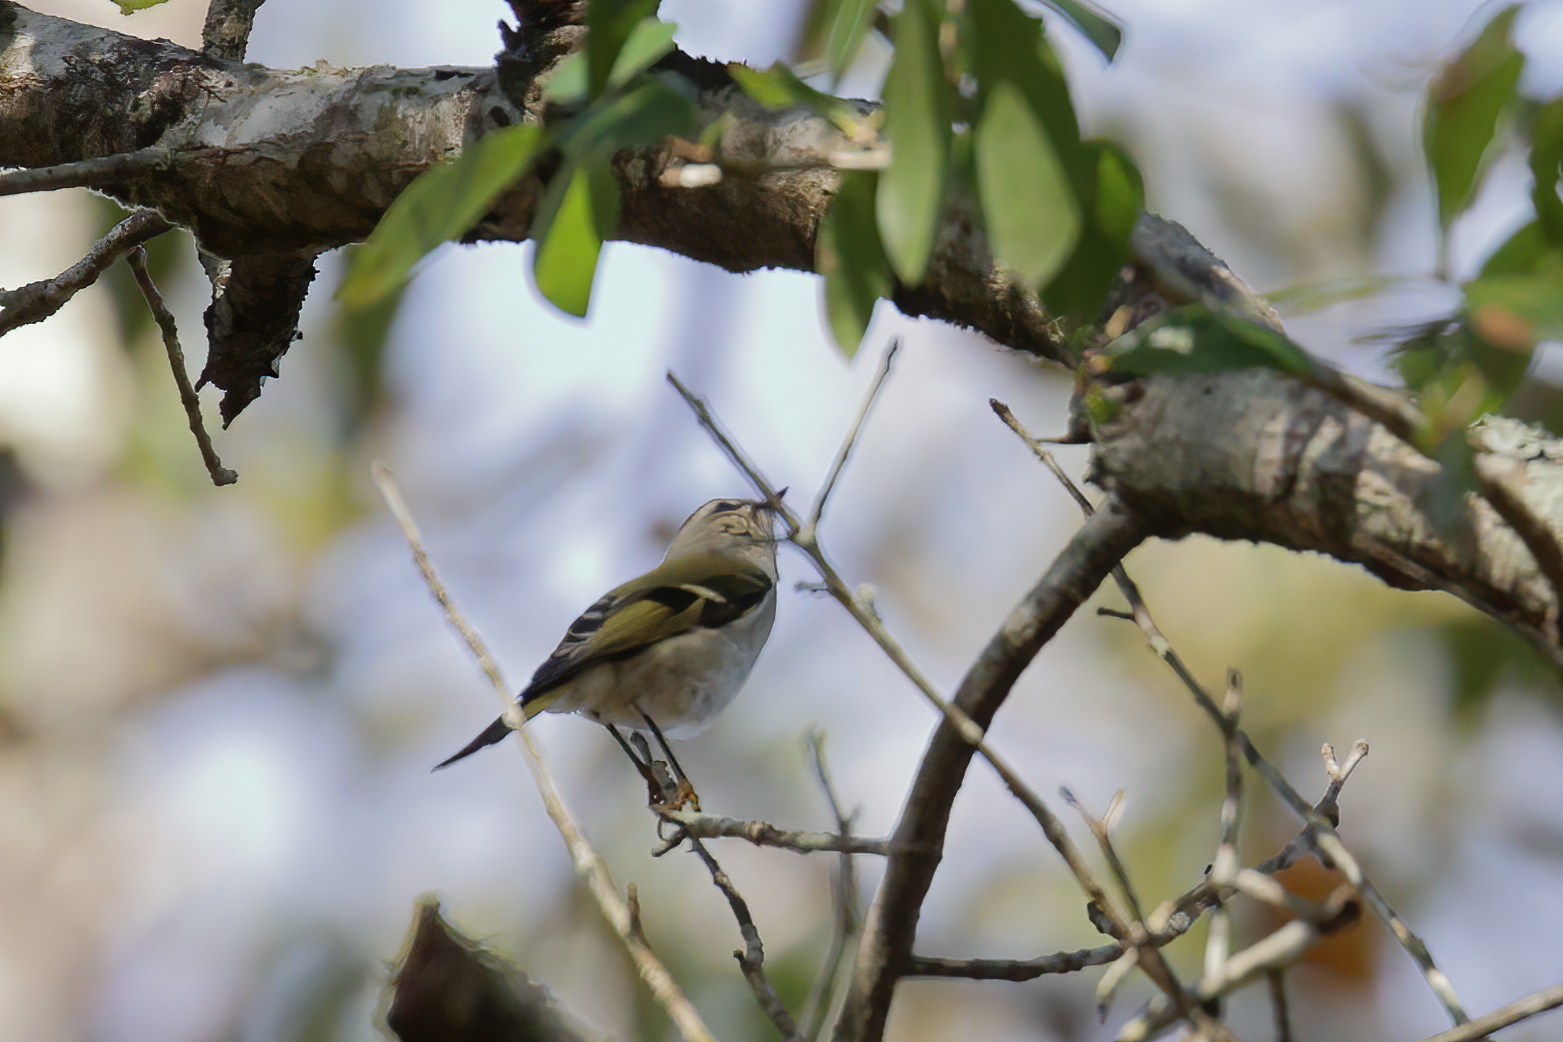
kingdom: Animalia
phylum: Chordata
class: Aves
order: Passeriformes
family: Regulidae
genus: Regulus
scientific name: Regulus satrapa
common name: Golden-crowned kinglet
